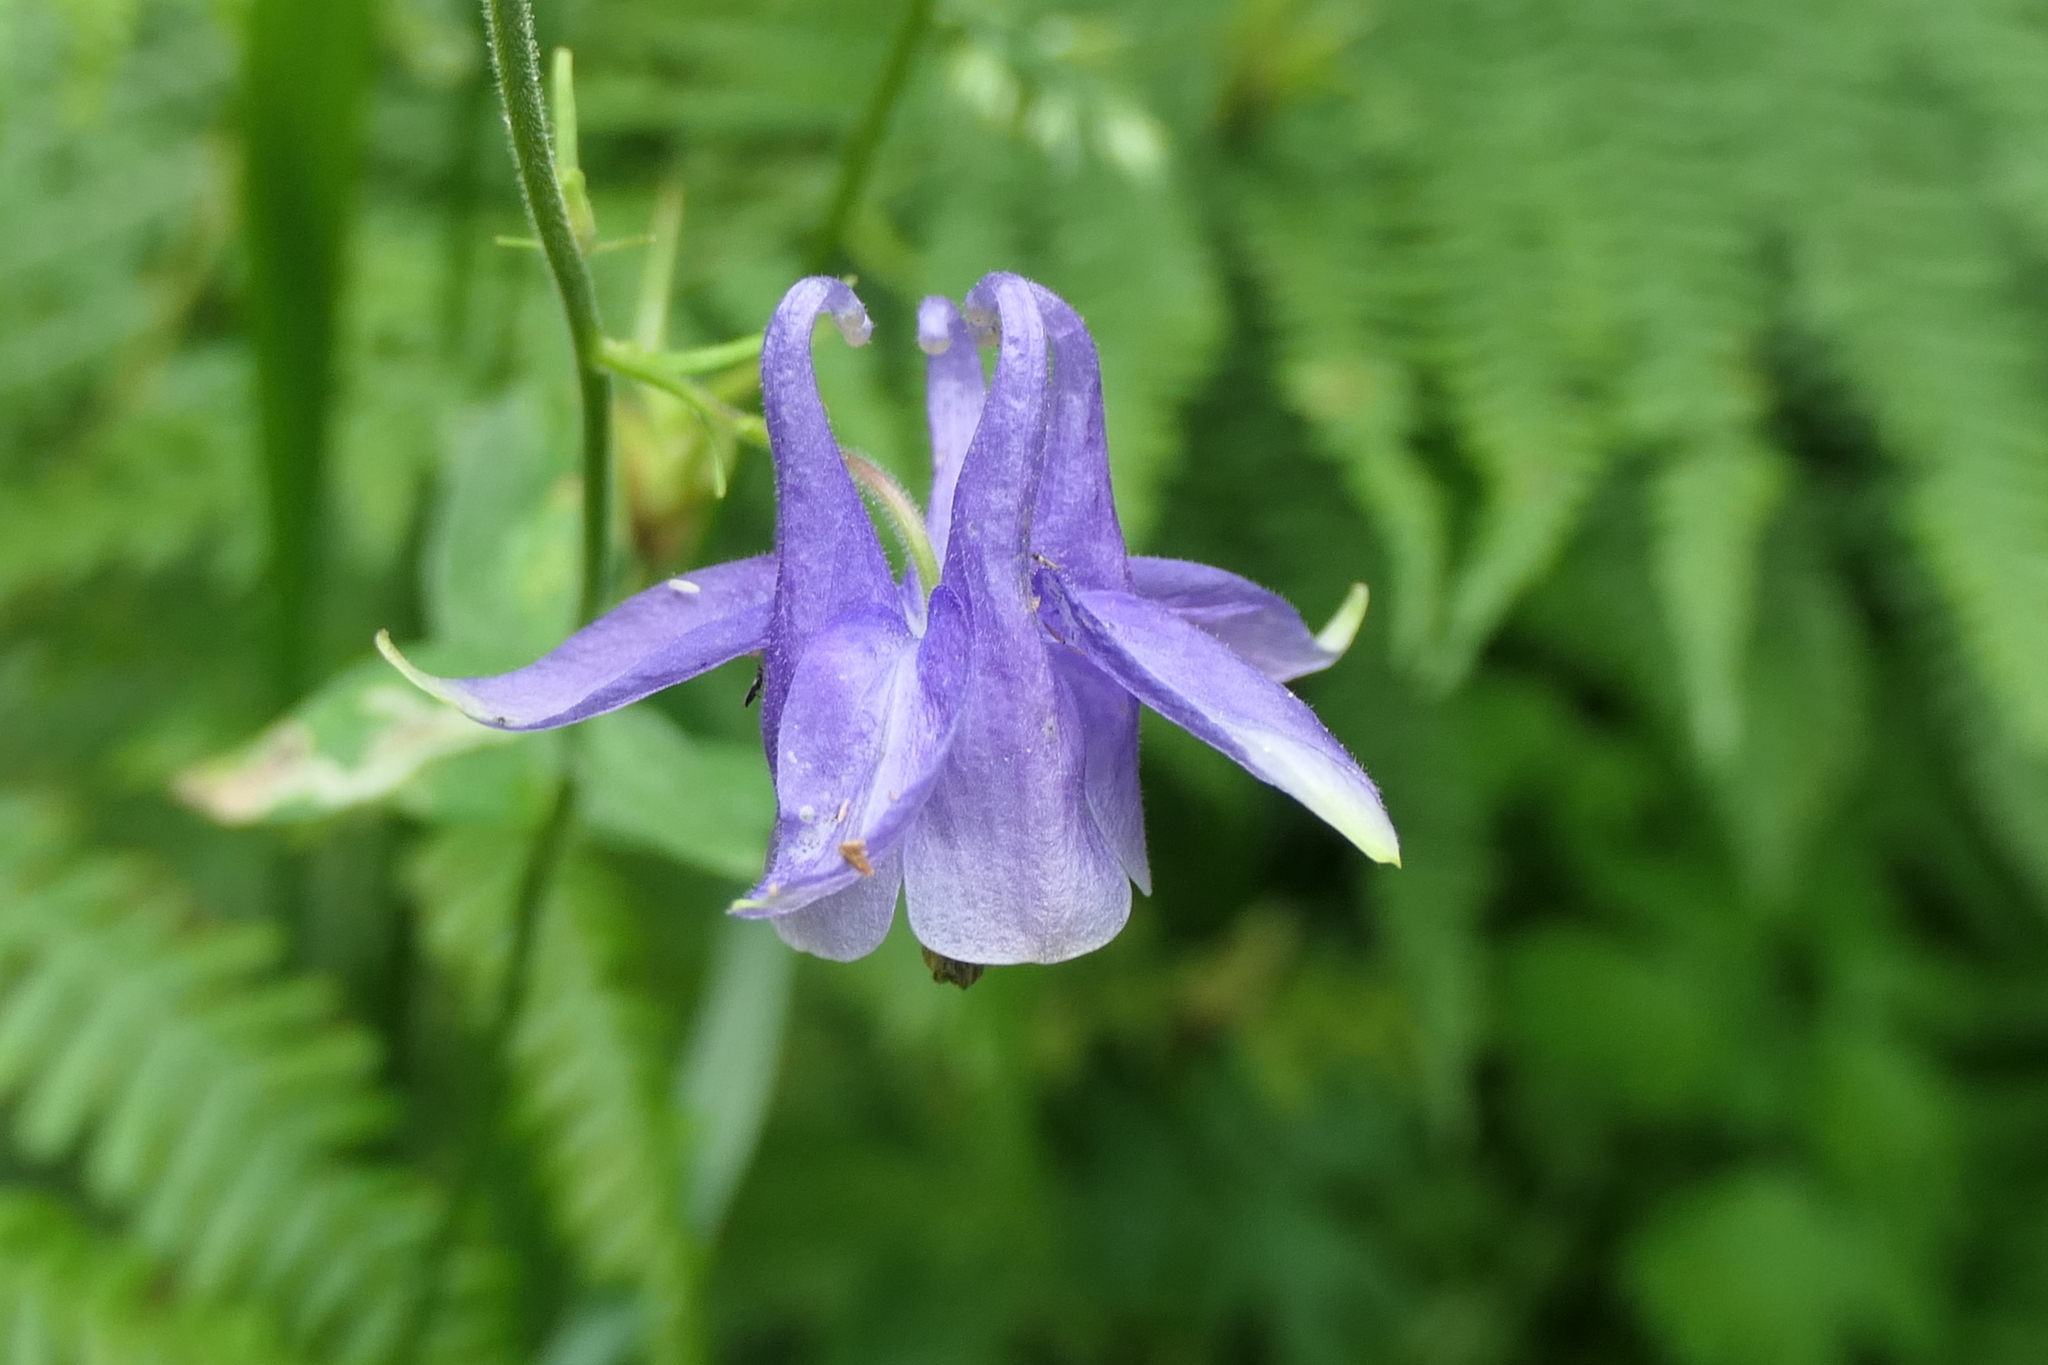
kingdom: Plantae
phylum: Tracheophyta
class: Magnoliopsida
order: Ranunculales
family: Ranunculaceae
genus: Aquilegia
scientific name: Aquilegia vulgaris
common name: Columbine
